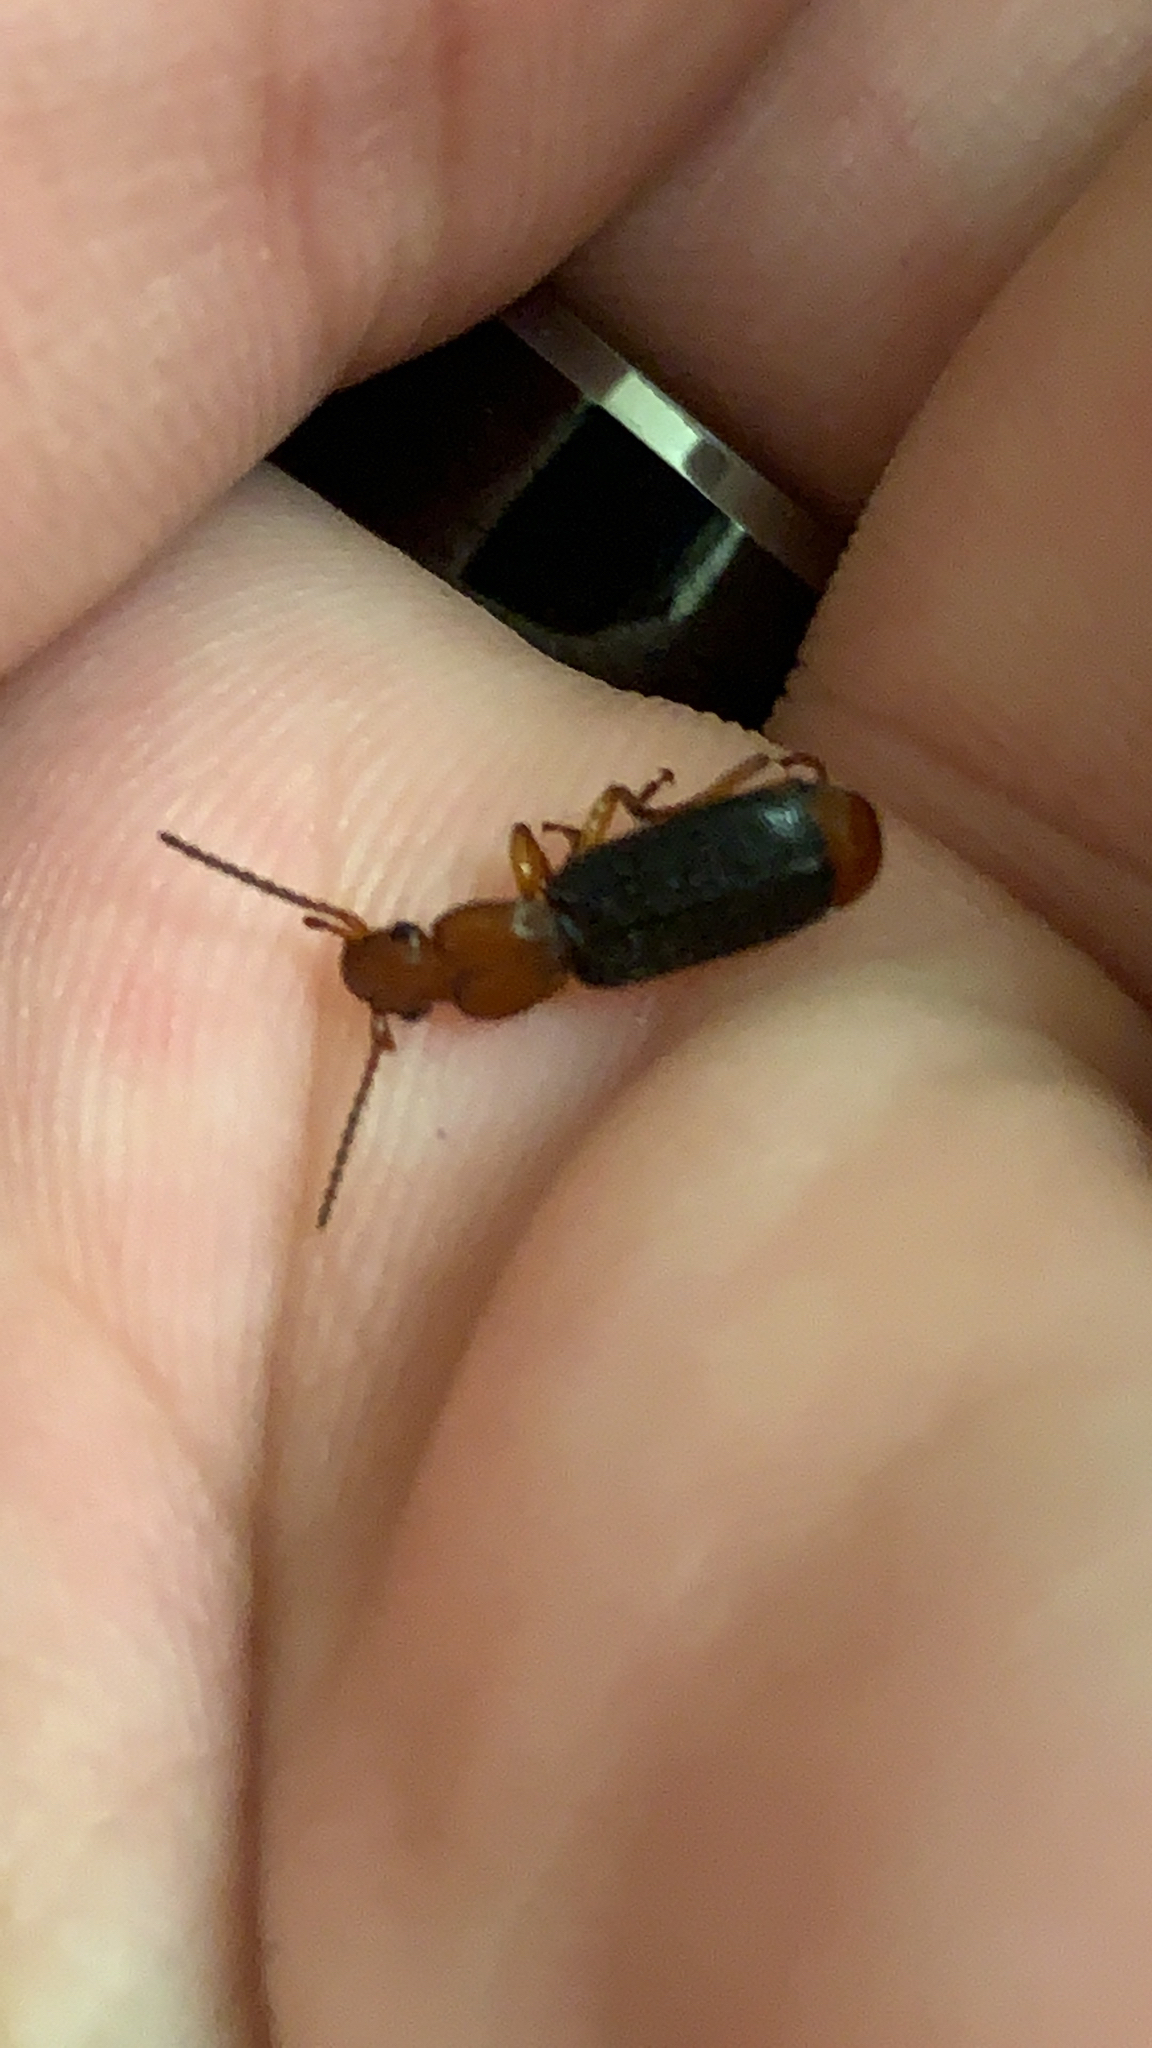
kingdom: Animalia
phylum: Arthropoda
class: Insecta
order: Coleoptera
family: Carabidae
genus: Helluomorphoides
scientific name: Helluomorphoides nigripennis
